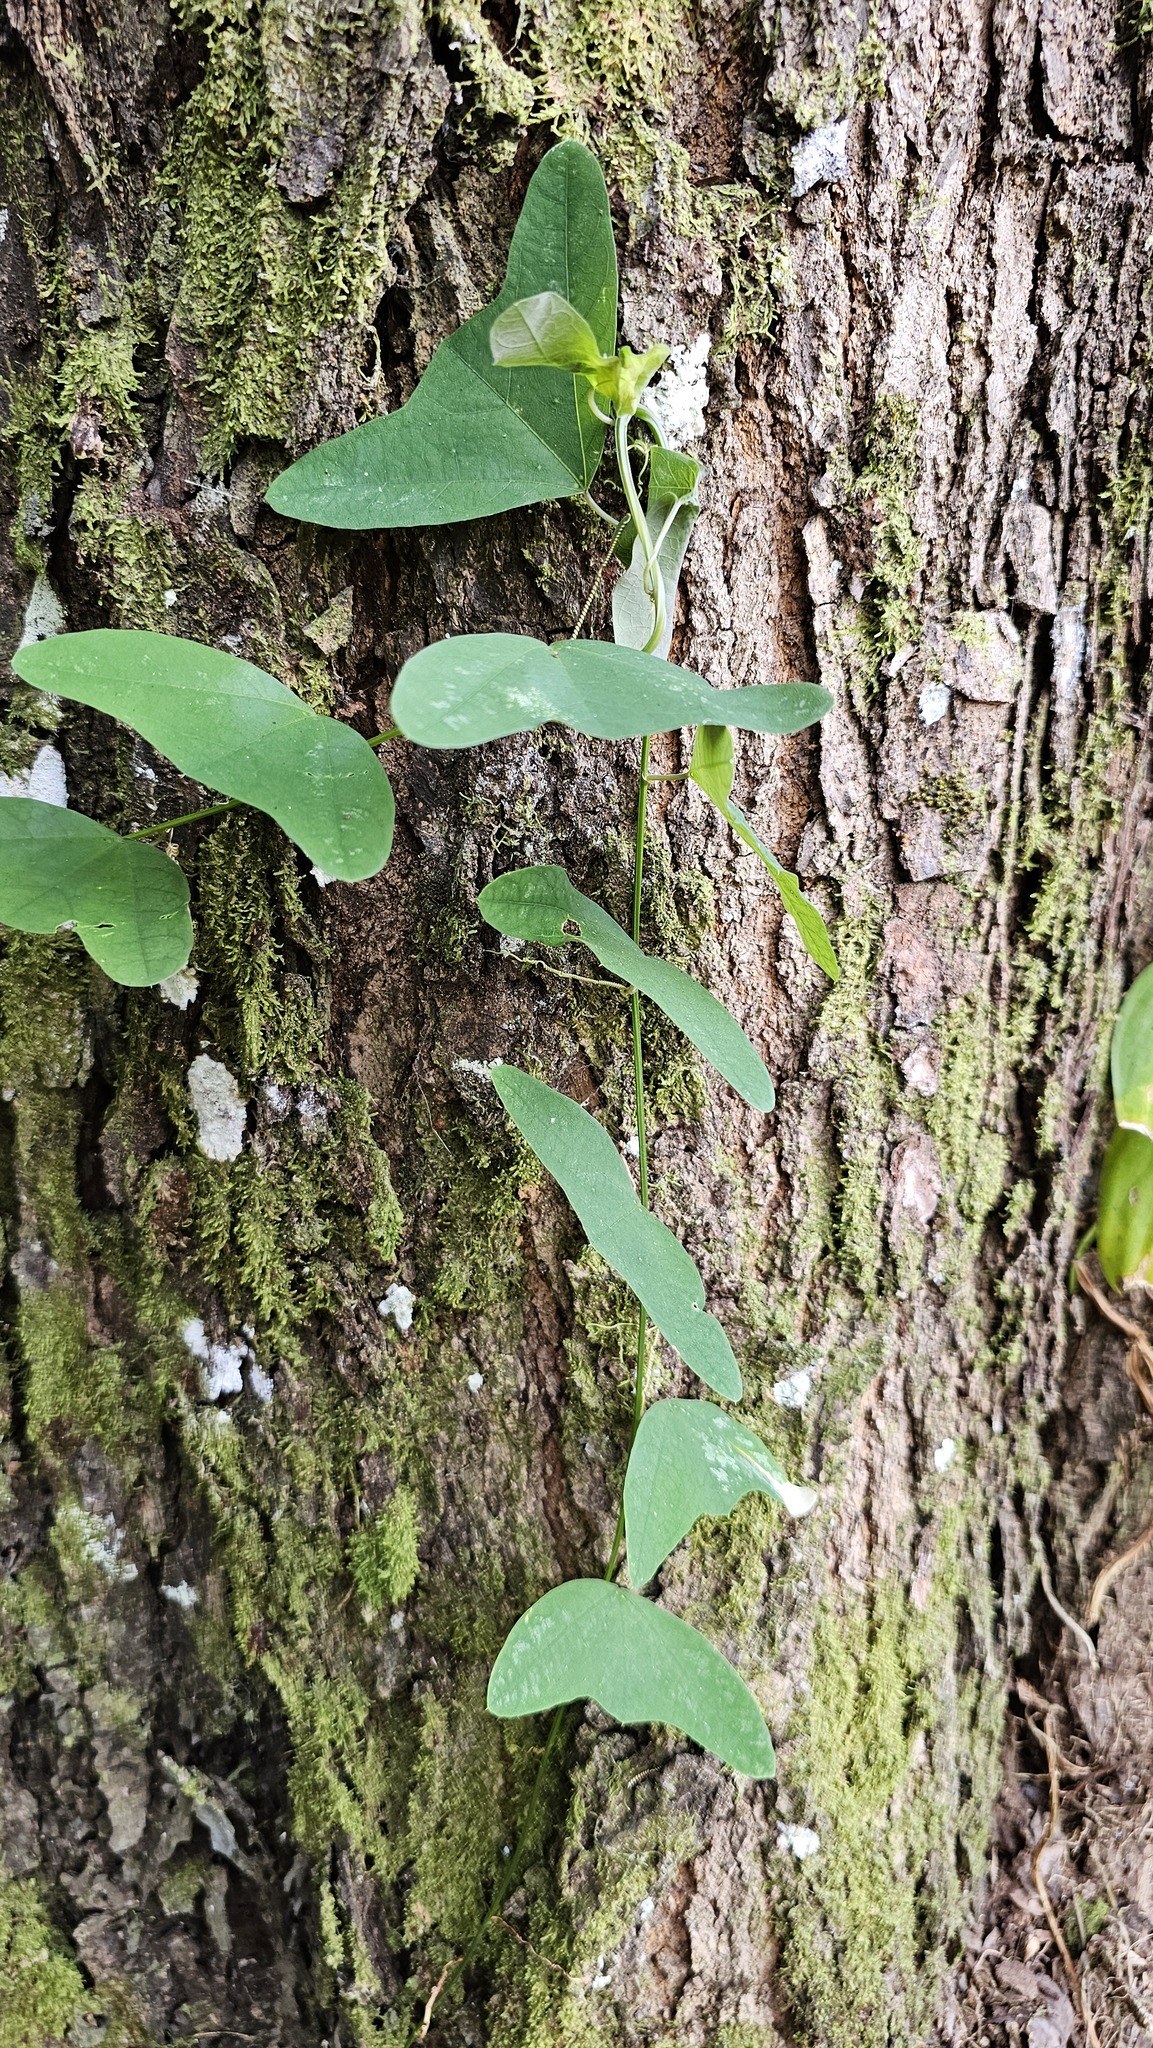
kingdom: Animalia
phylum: Chordata
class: Aves
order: Trogoniformes
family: Trogonidae
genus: Trogon
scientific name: Trogon massena
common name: Slaty-tailed trogon
